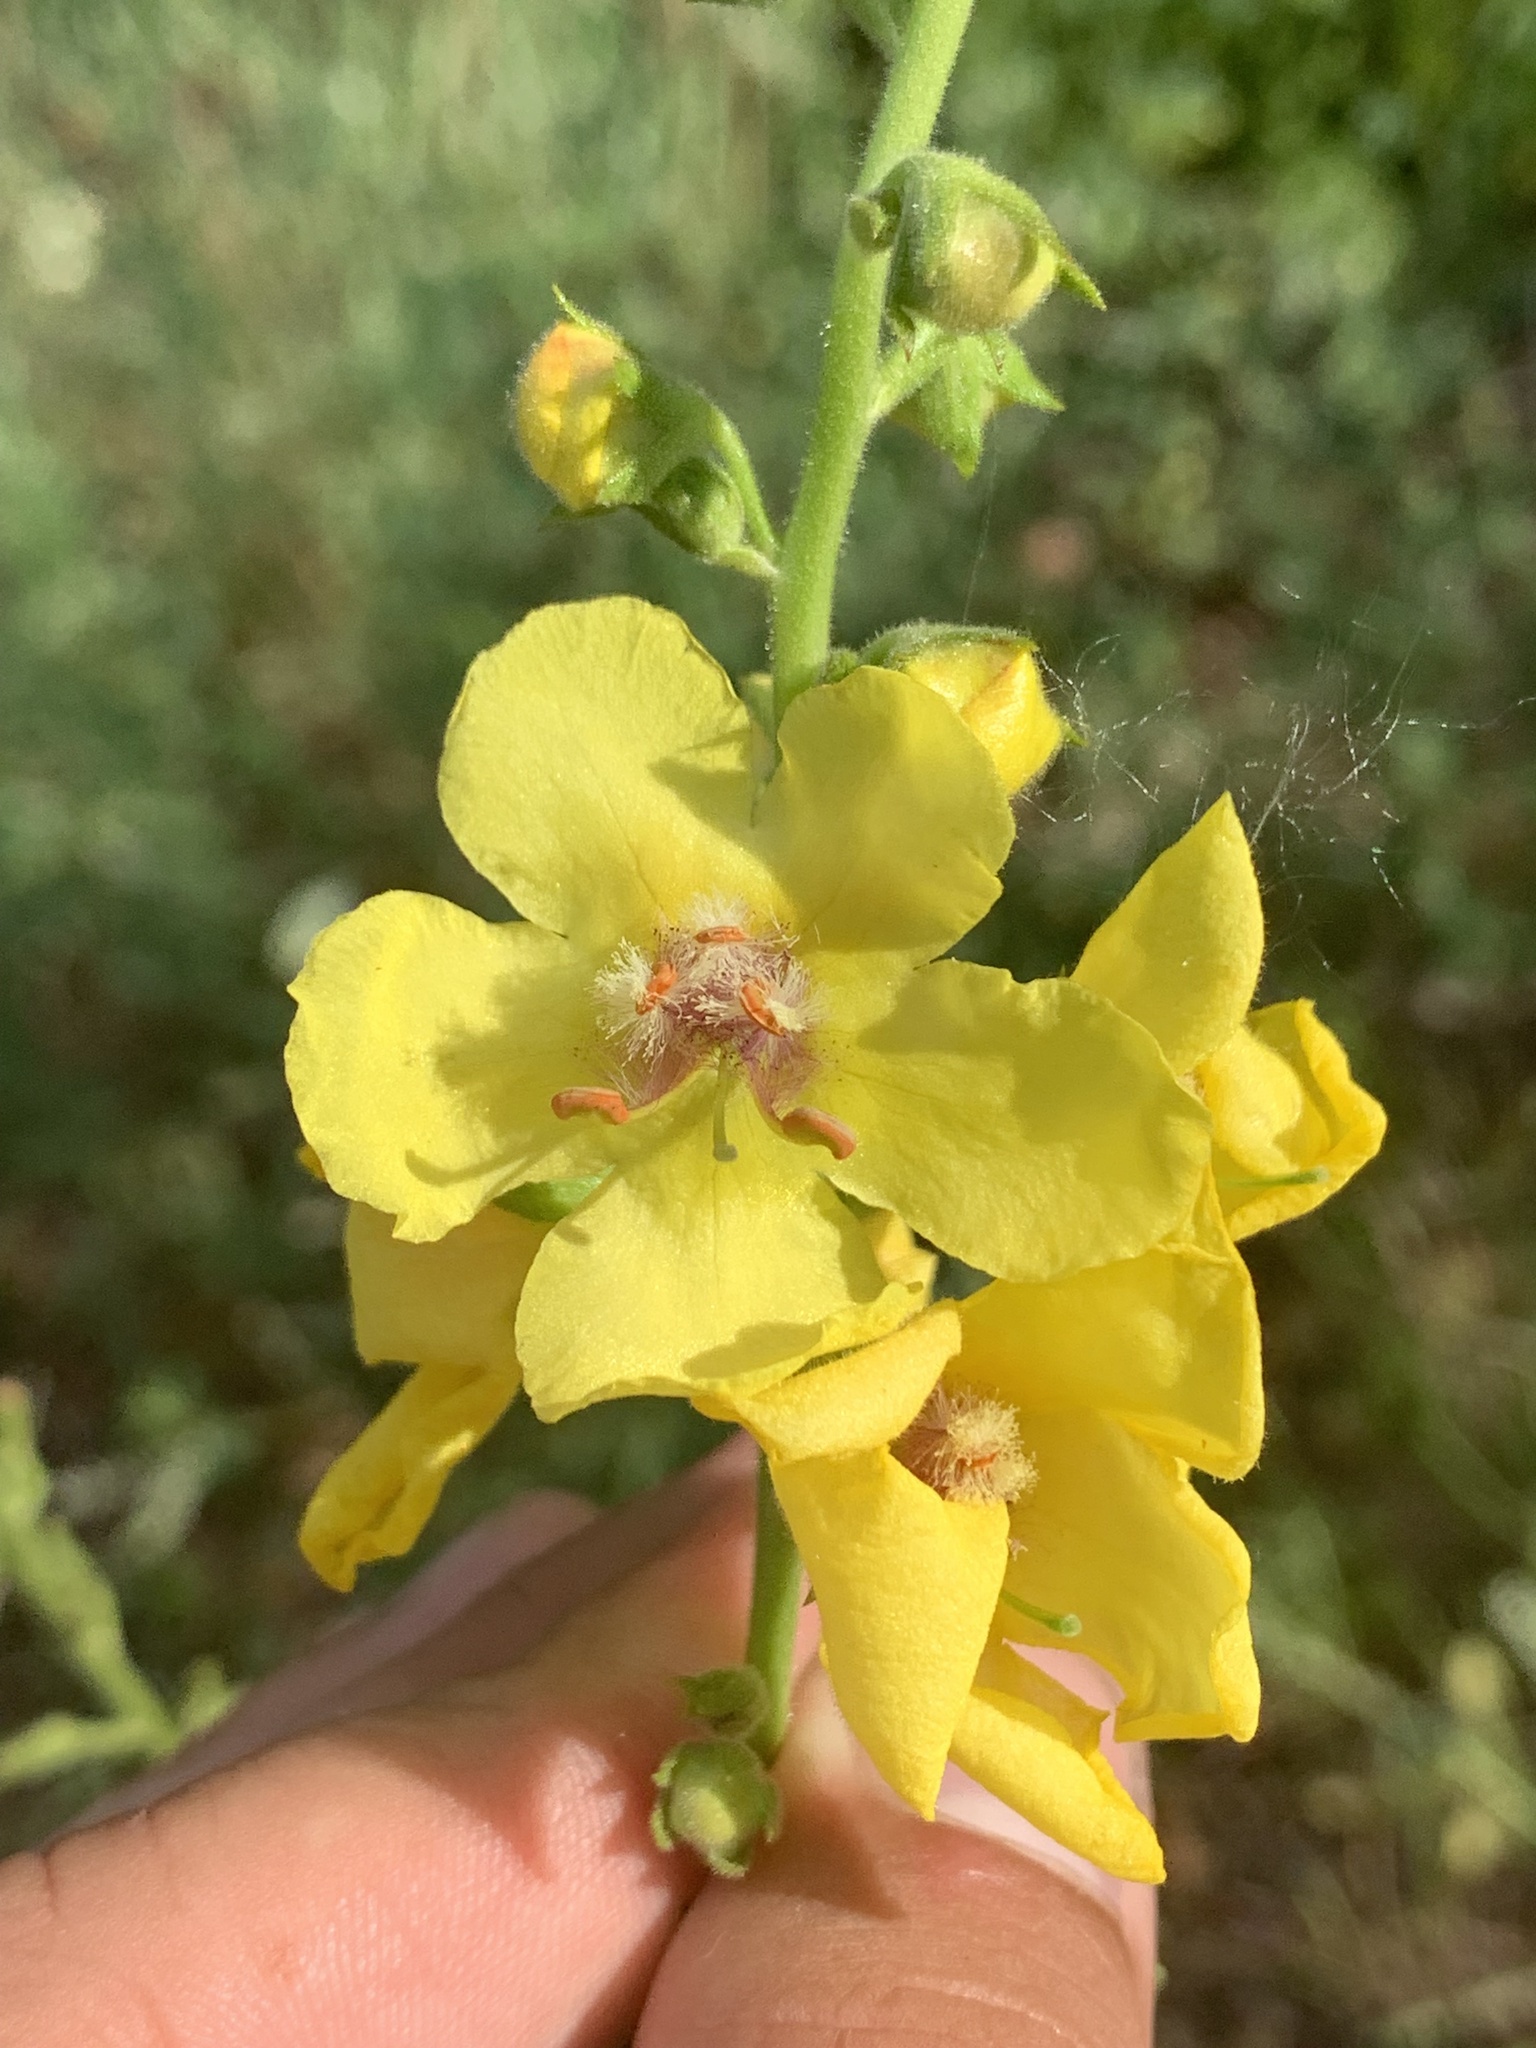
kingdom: Plantae
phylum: Tracheophyta
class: Magnoliopsida
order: Lamiales
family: Scrophulariaceae
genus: Verbascum
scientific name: Verbascum maurum
